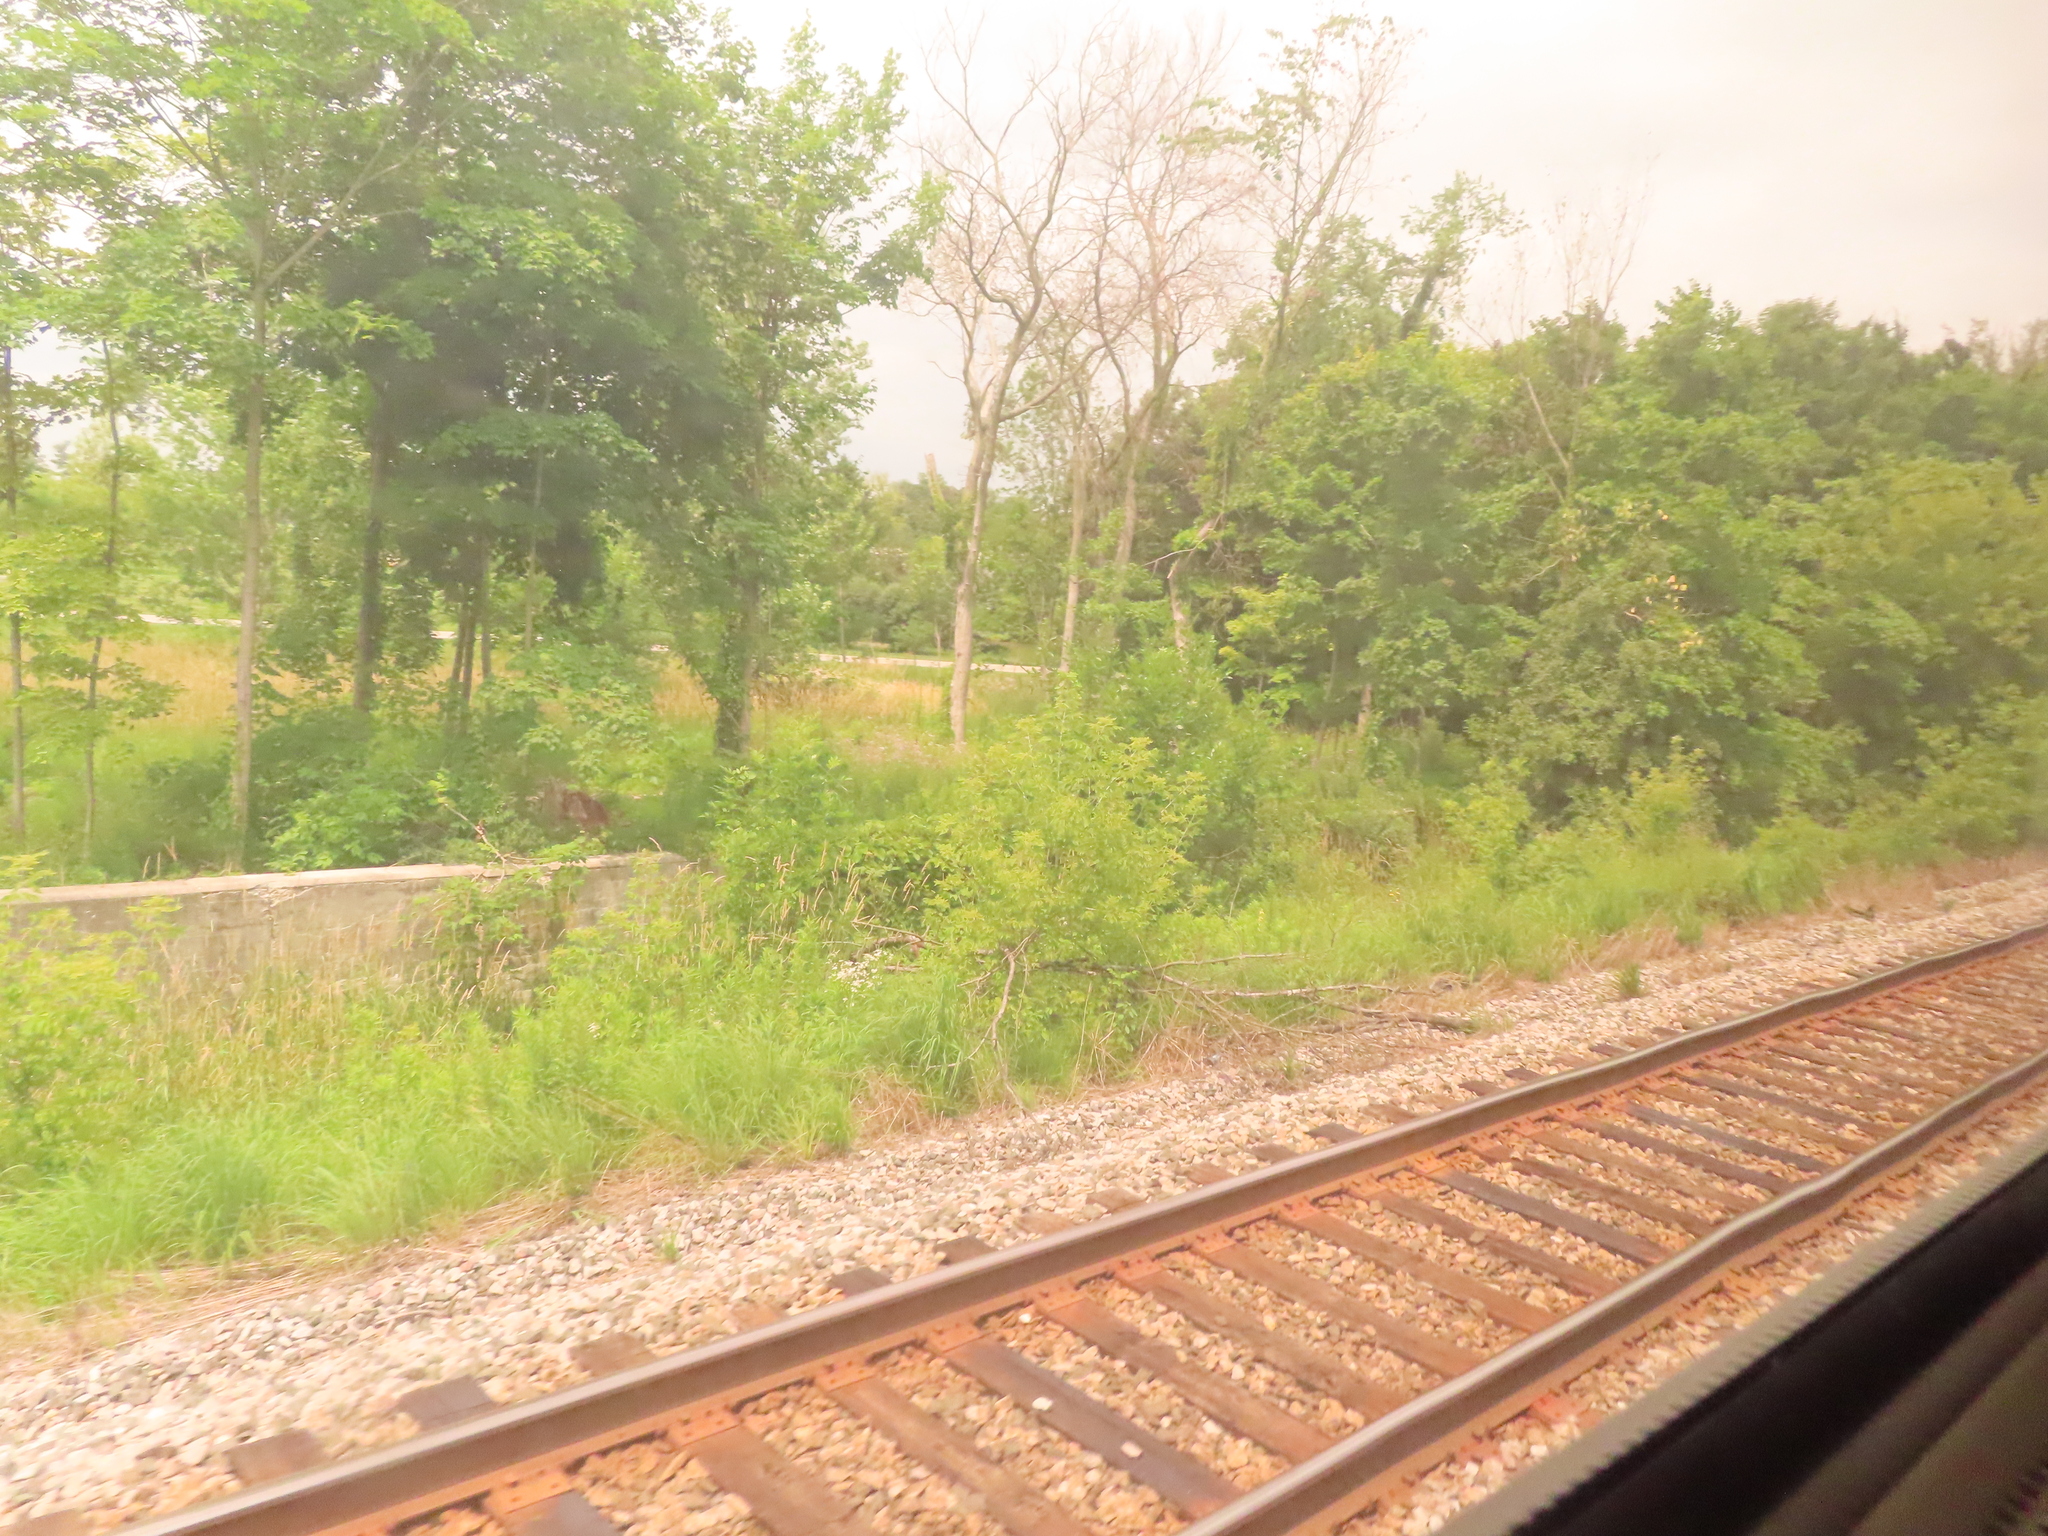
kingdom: Plantae
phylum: Tracheophyta
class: Magnoliopsida
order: Sapindales
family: Sapindaceae
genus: Acer
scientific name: Acer negundo
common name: Ashleaf maple
